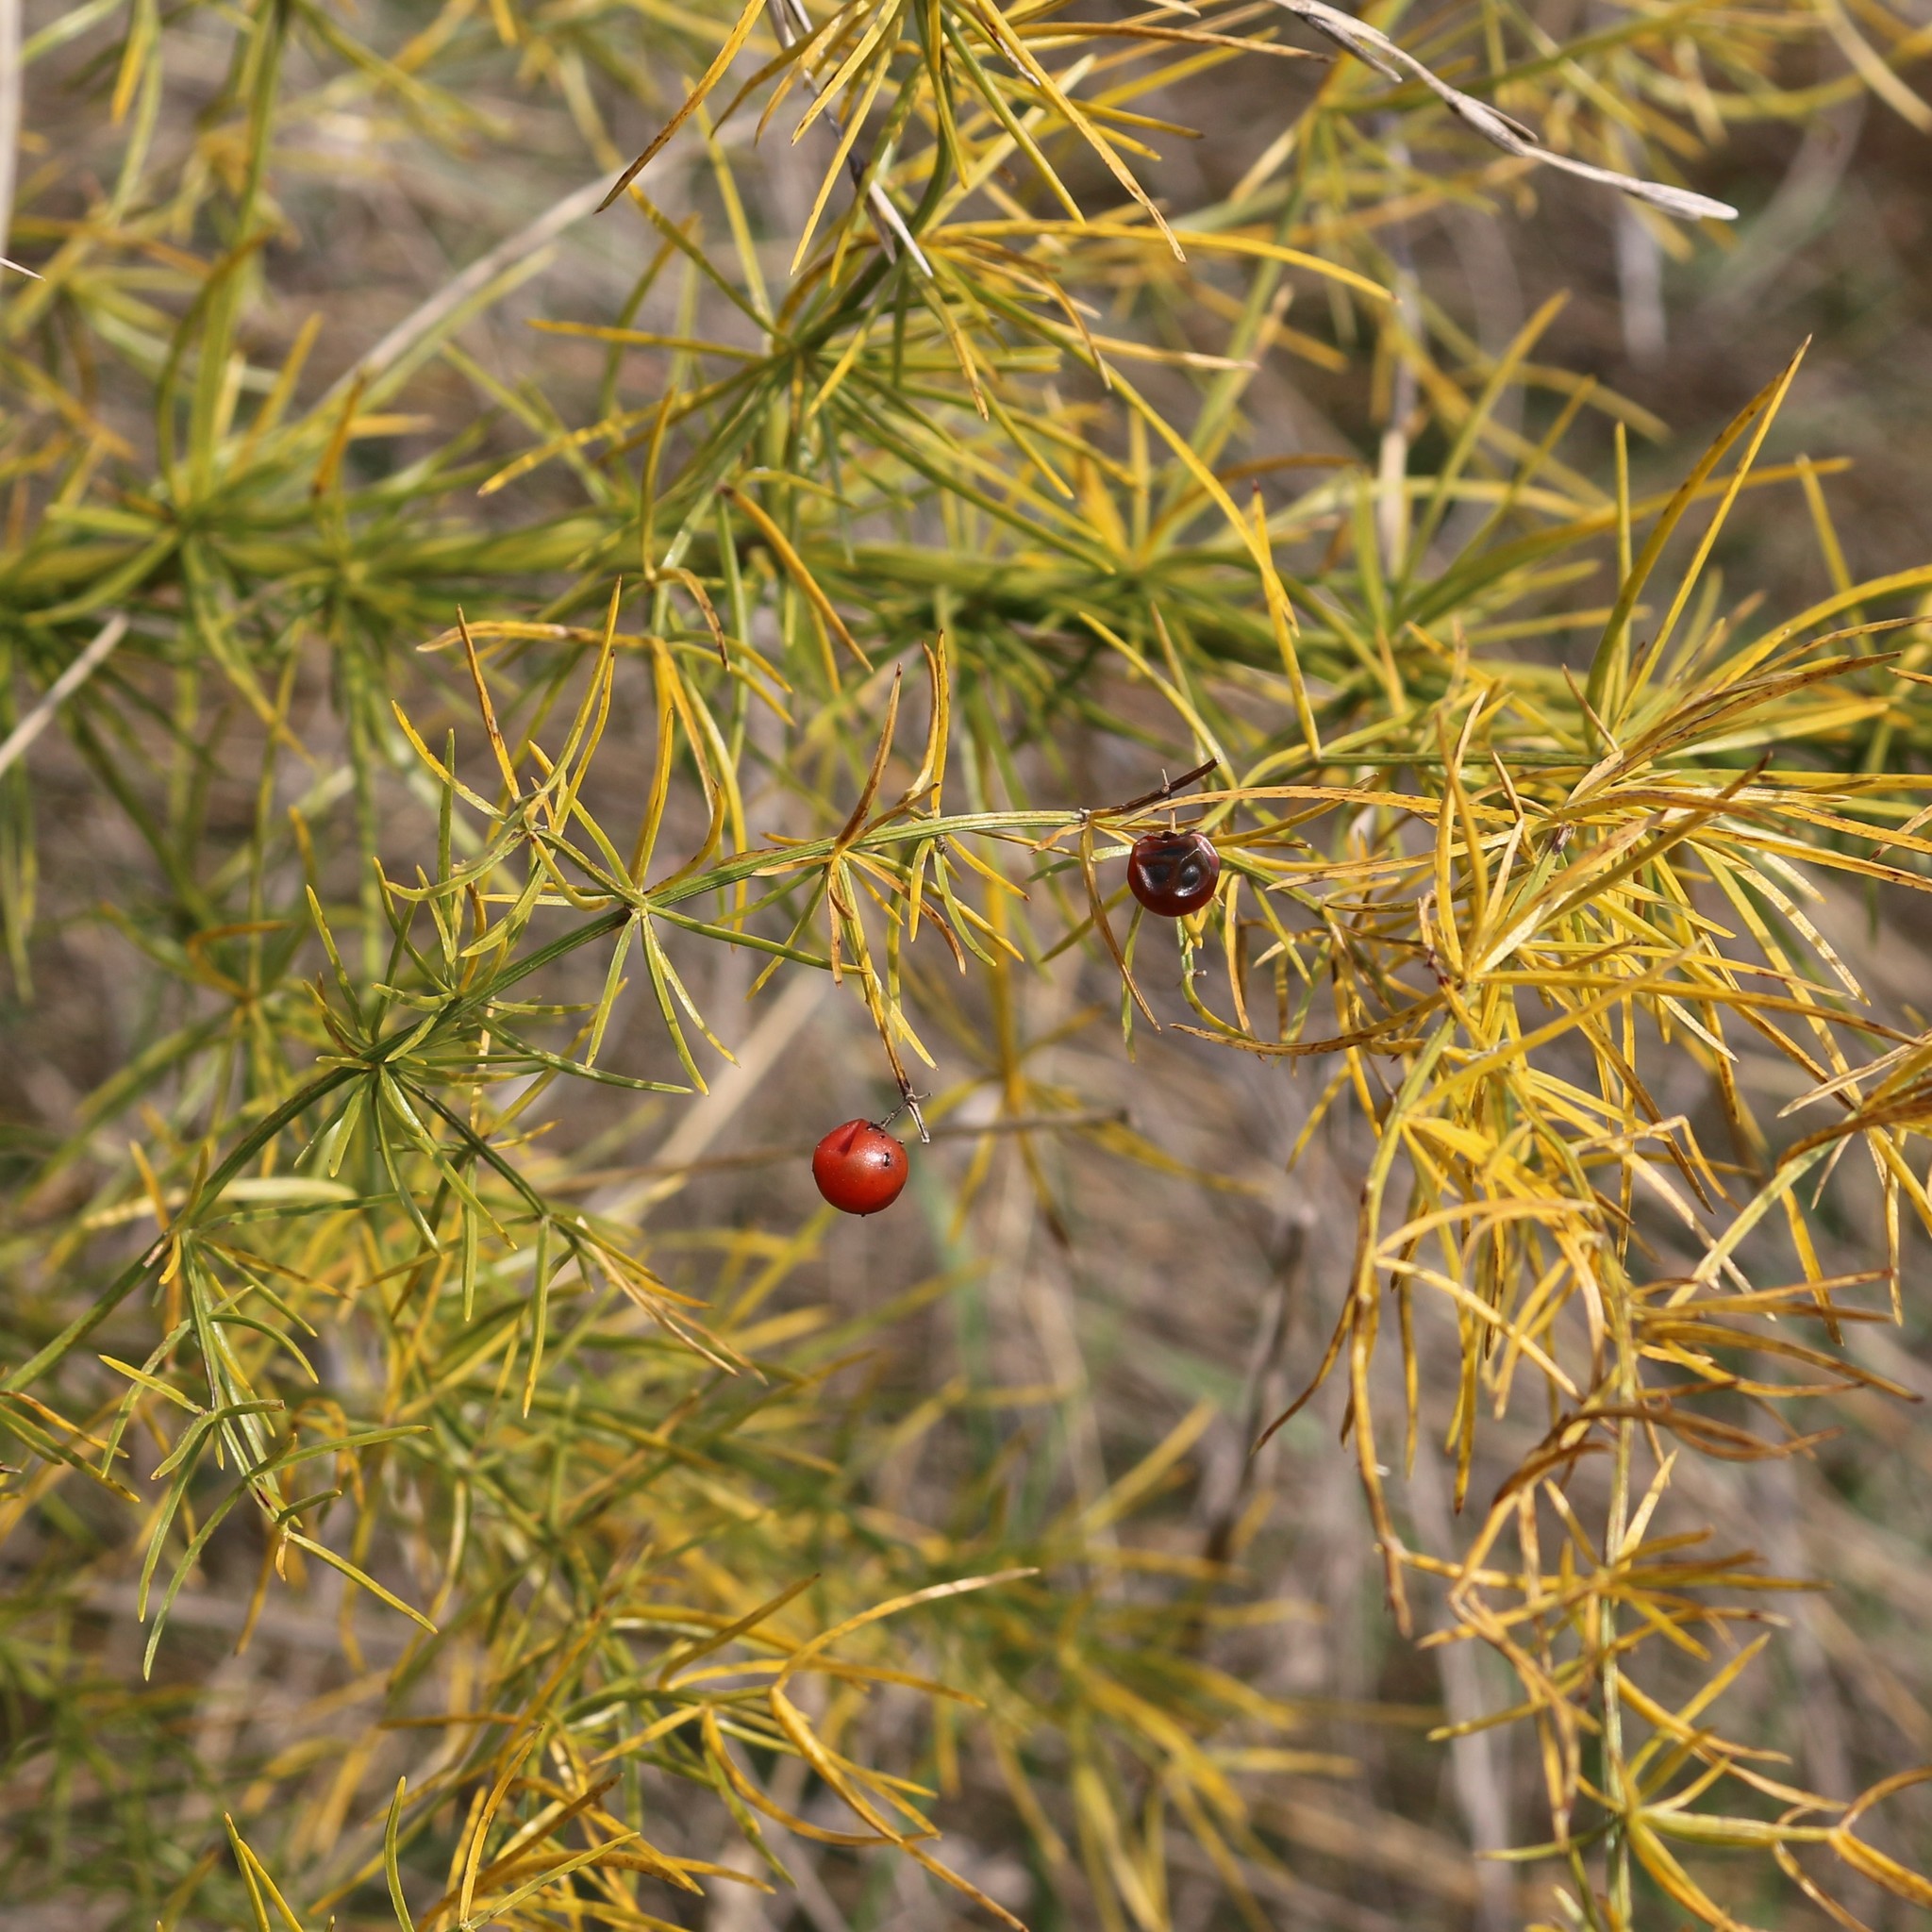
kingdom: Plantae
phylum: Tracheophyta
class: Liliopsida
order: Asparagales
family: Asparagaceae
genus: Asparagus
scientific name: Asparagus verticillatus
